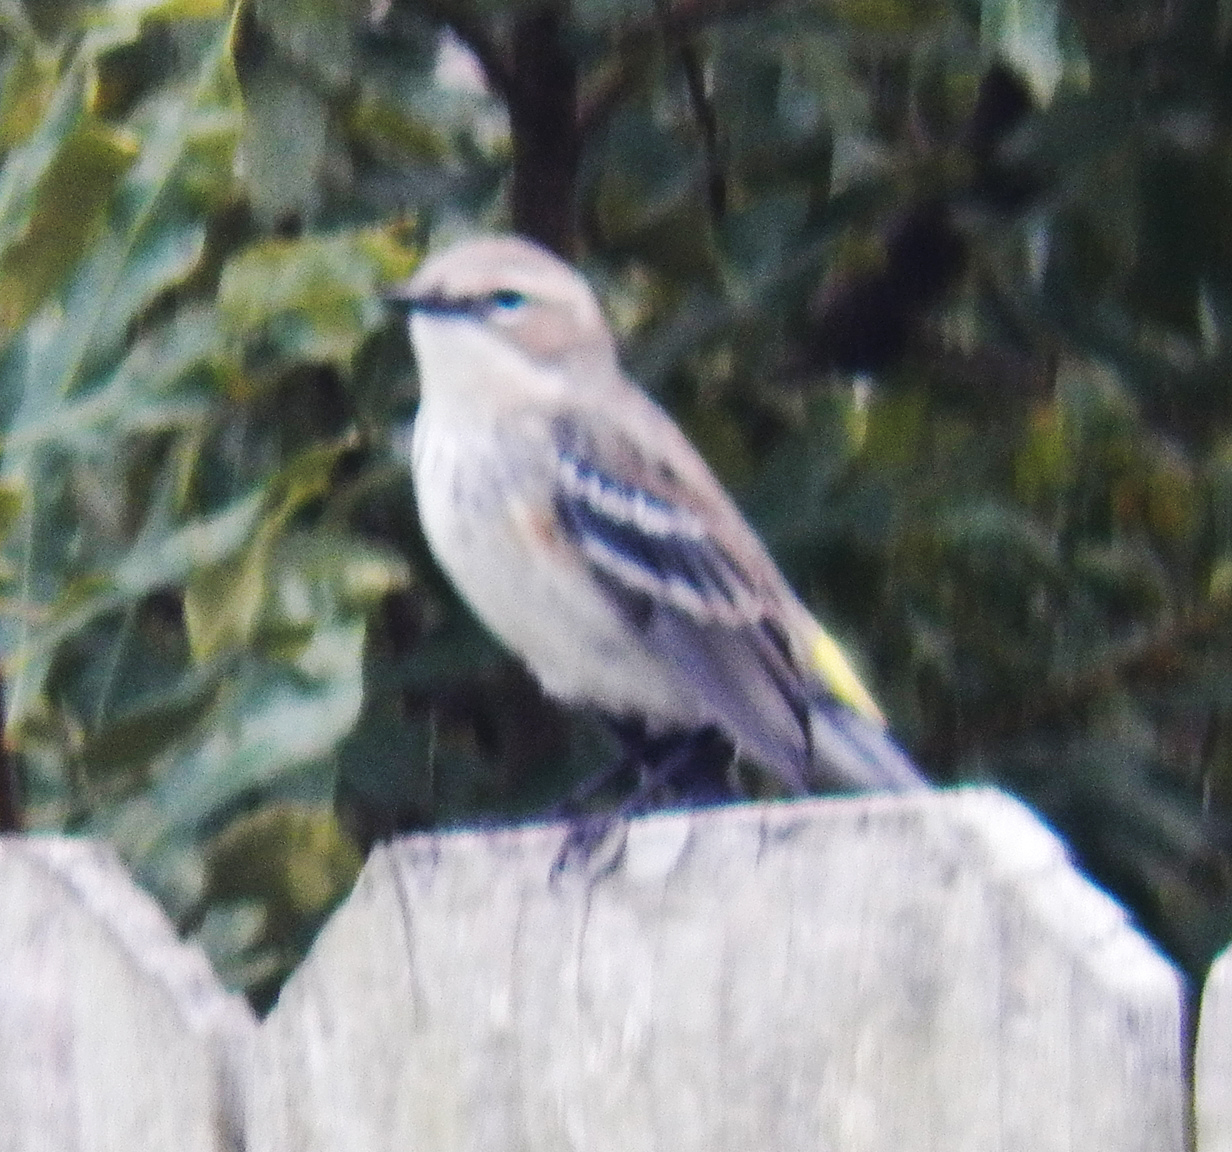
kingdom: Animalia
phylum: Chordata
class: Aves
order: Passeriformes
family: Parulidae
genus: Setophaga
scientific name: Setophaga coronata
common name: Myrtle warbler
